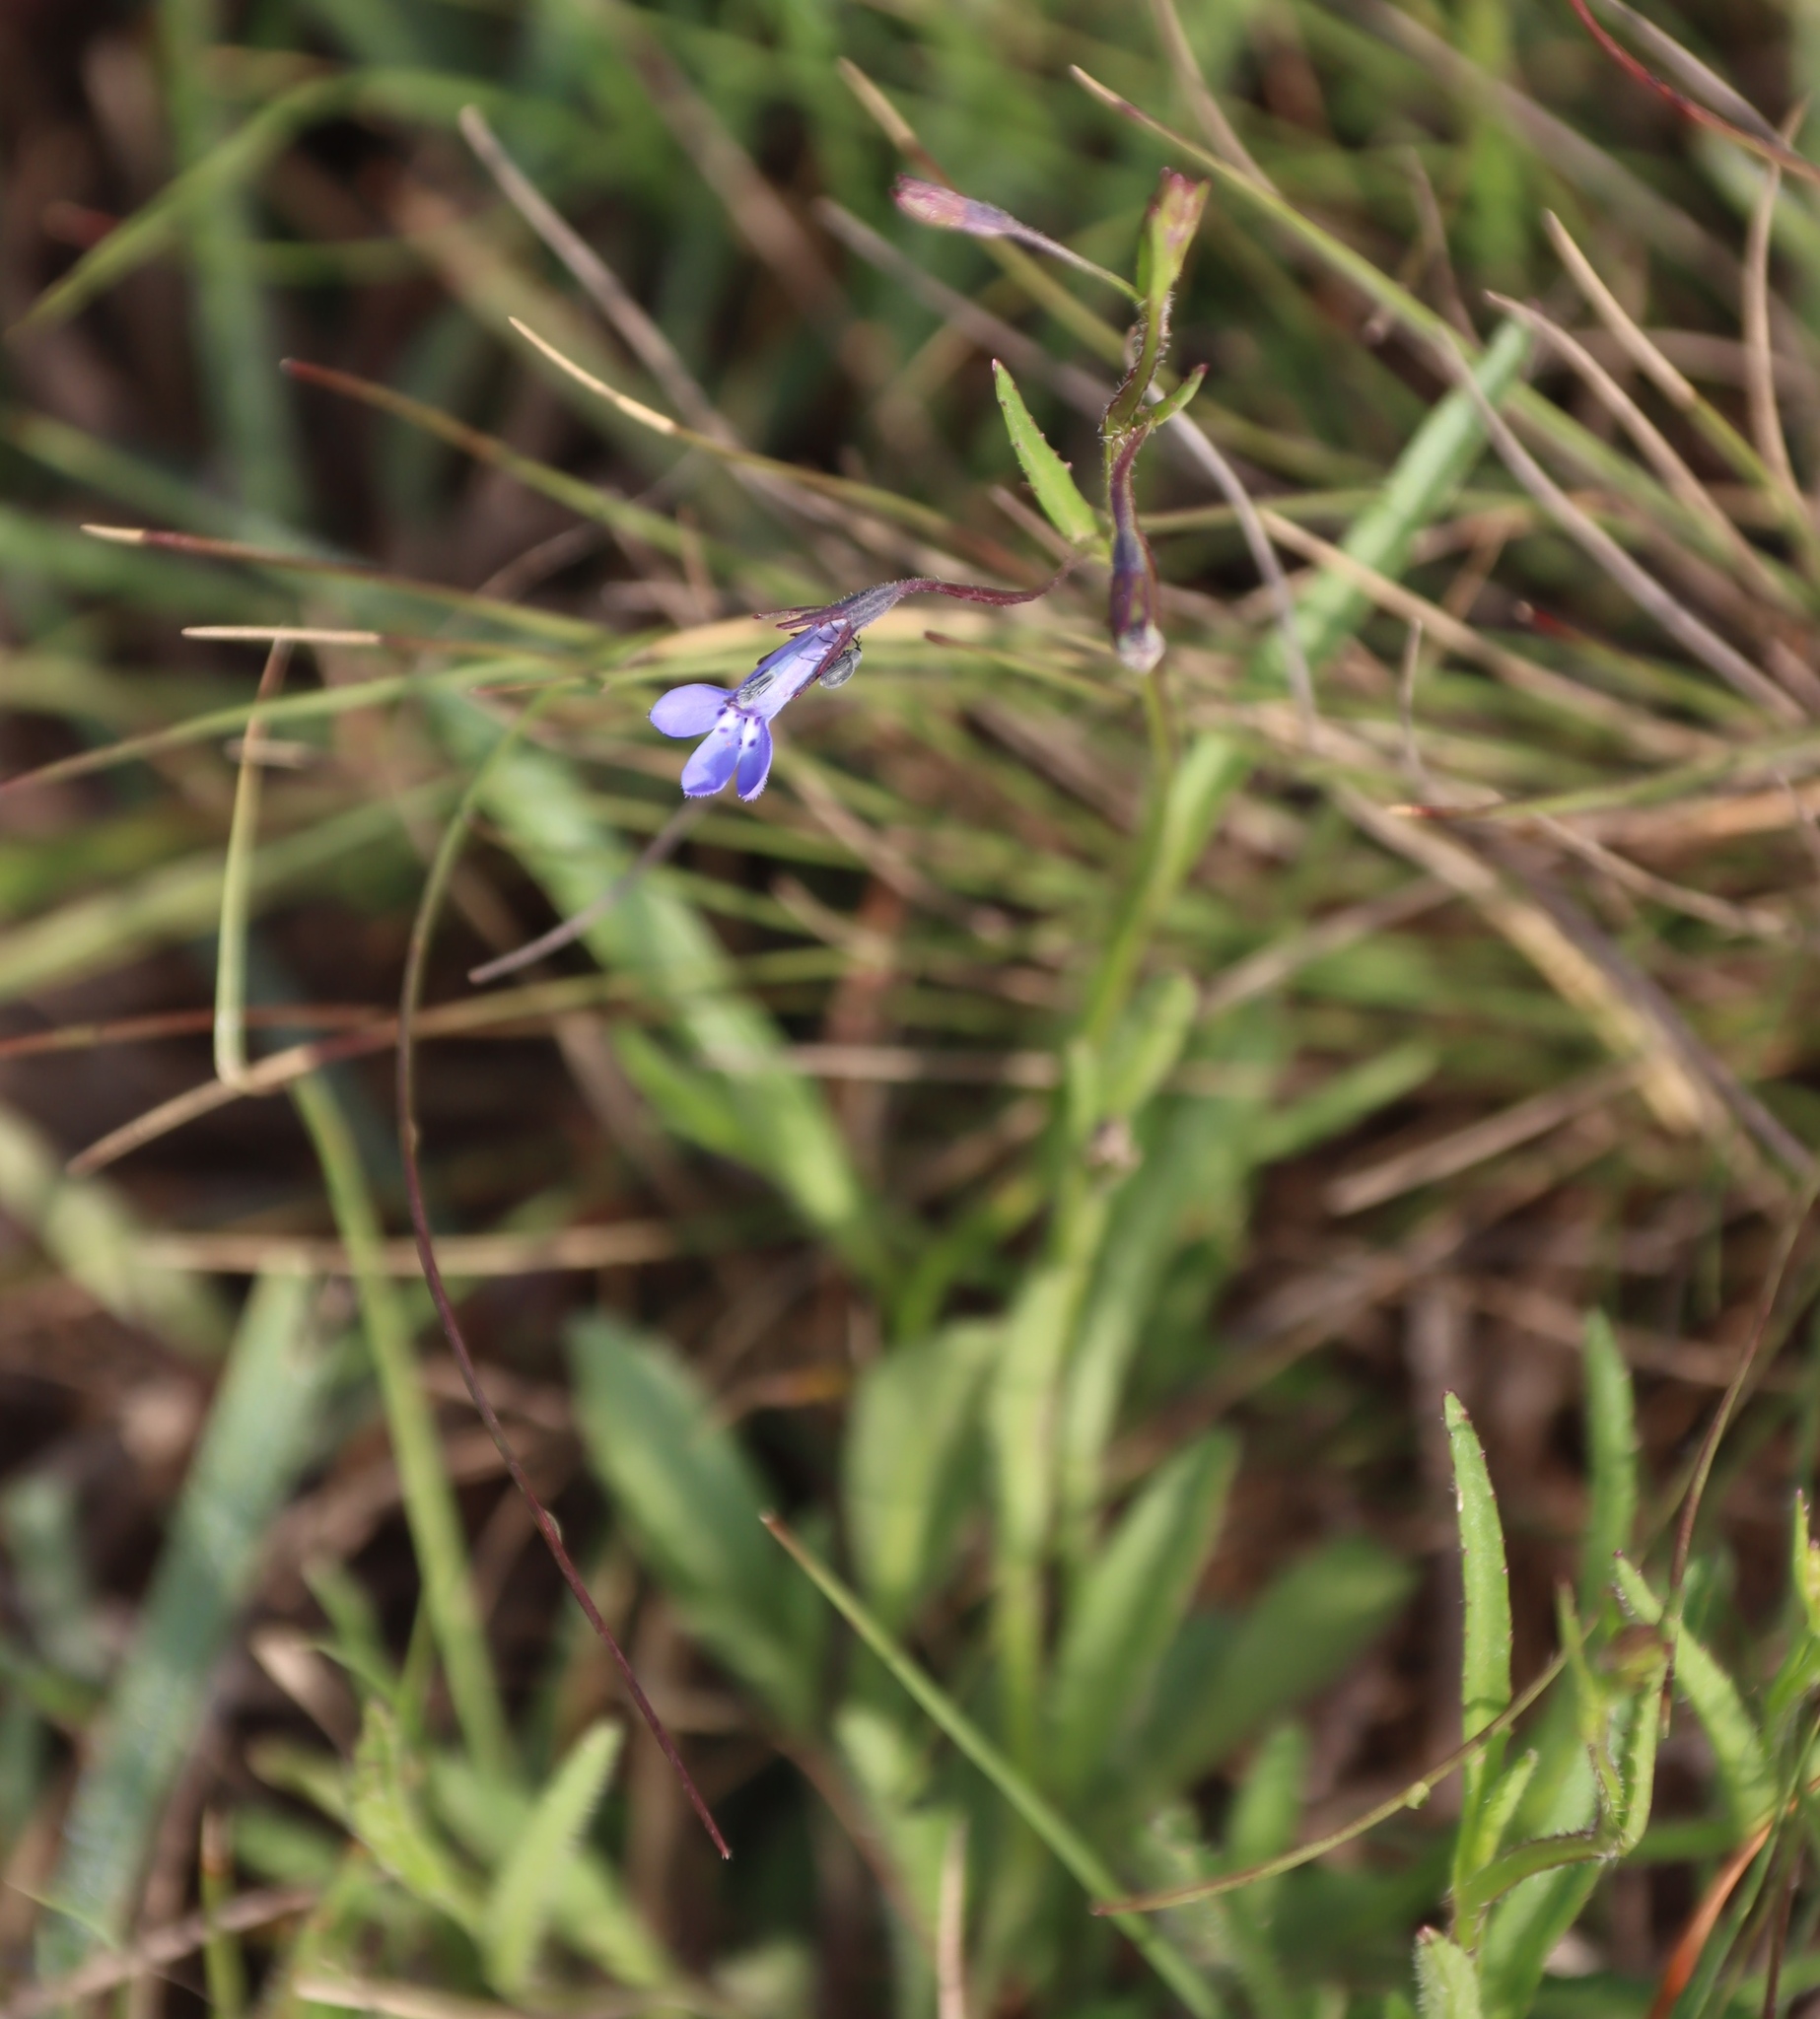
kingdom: Plantae
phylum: Tracheophyta
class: Magnoliopsida
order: Asterales
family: Campanulaceae
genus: Lobelia
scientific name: Lobelia flaccida
